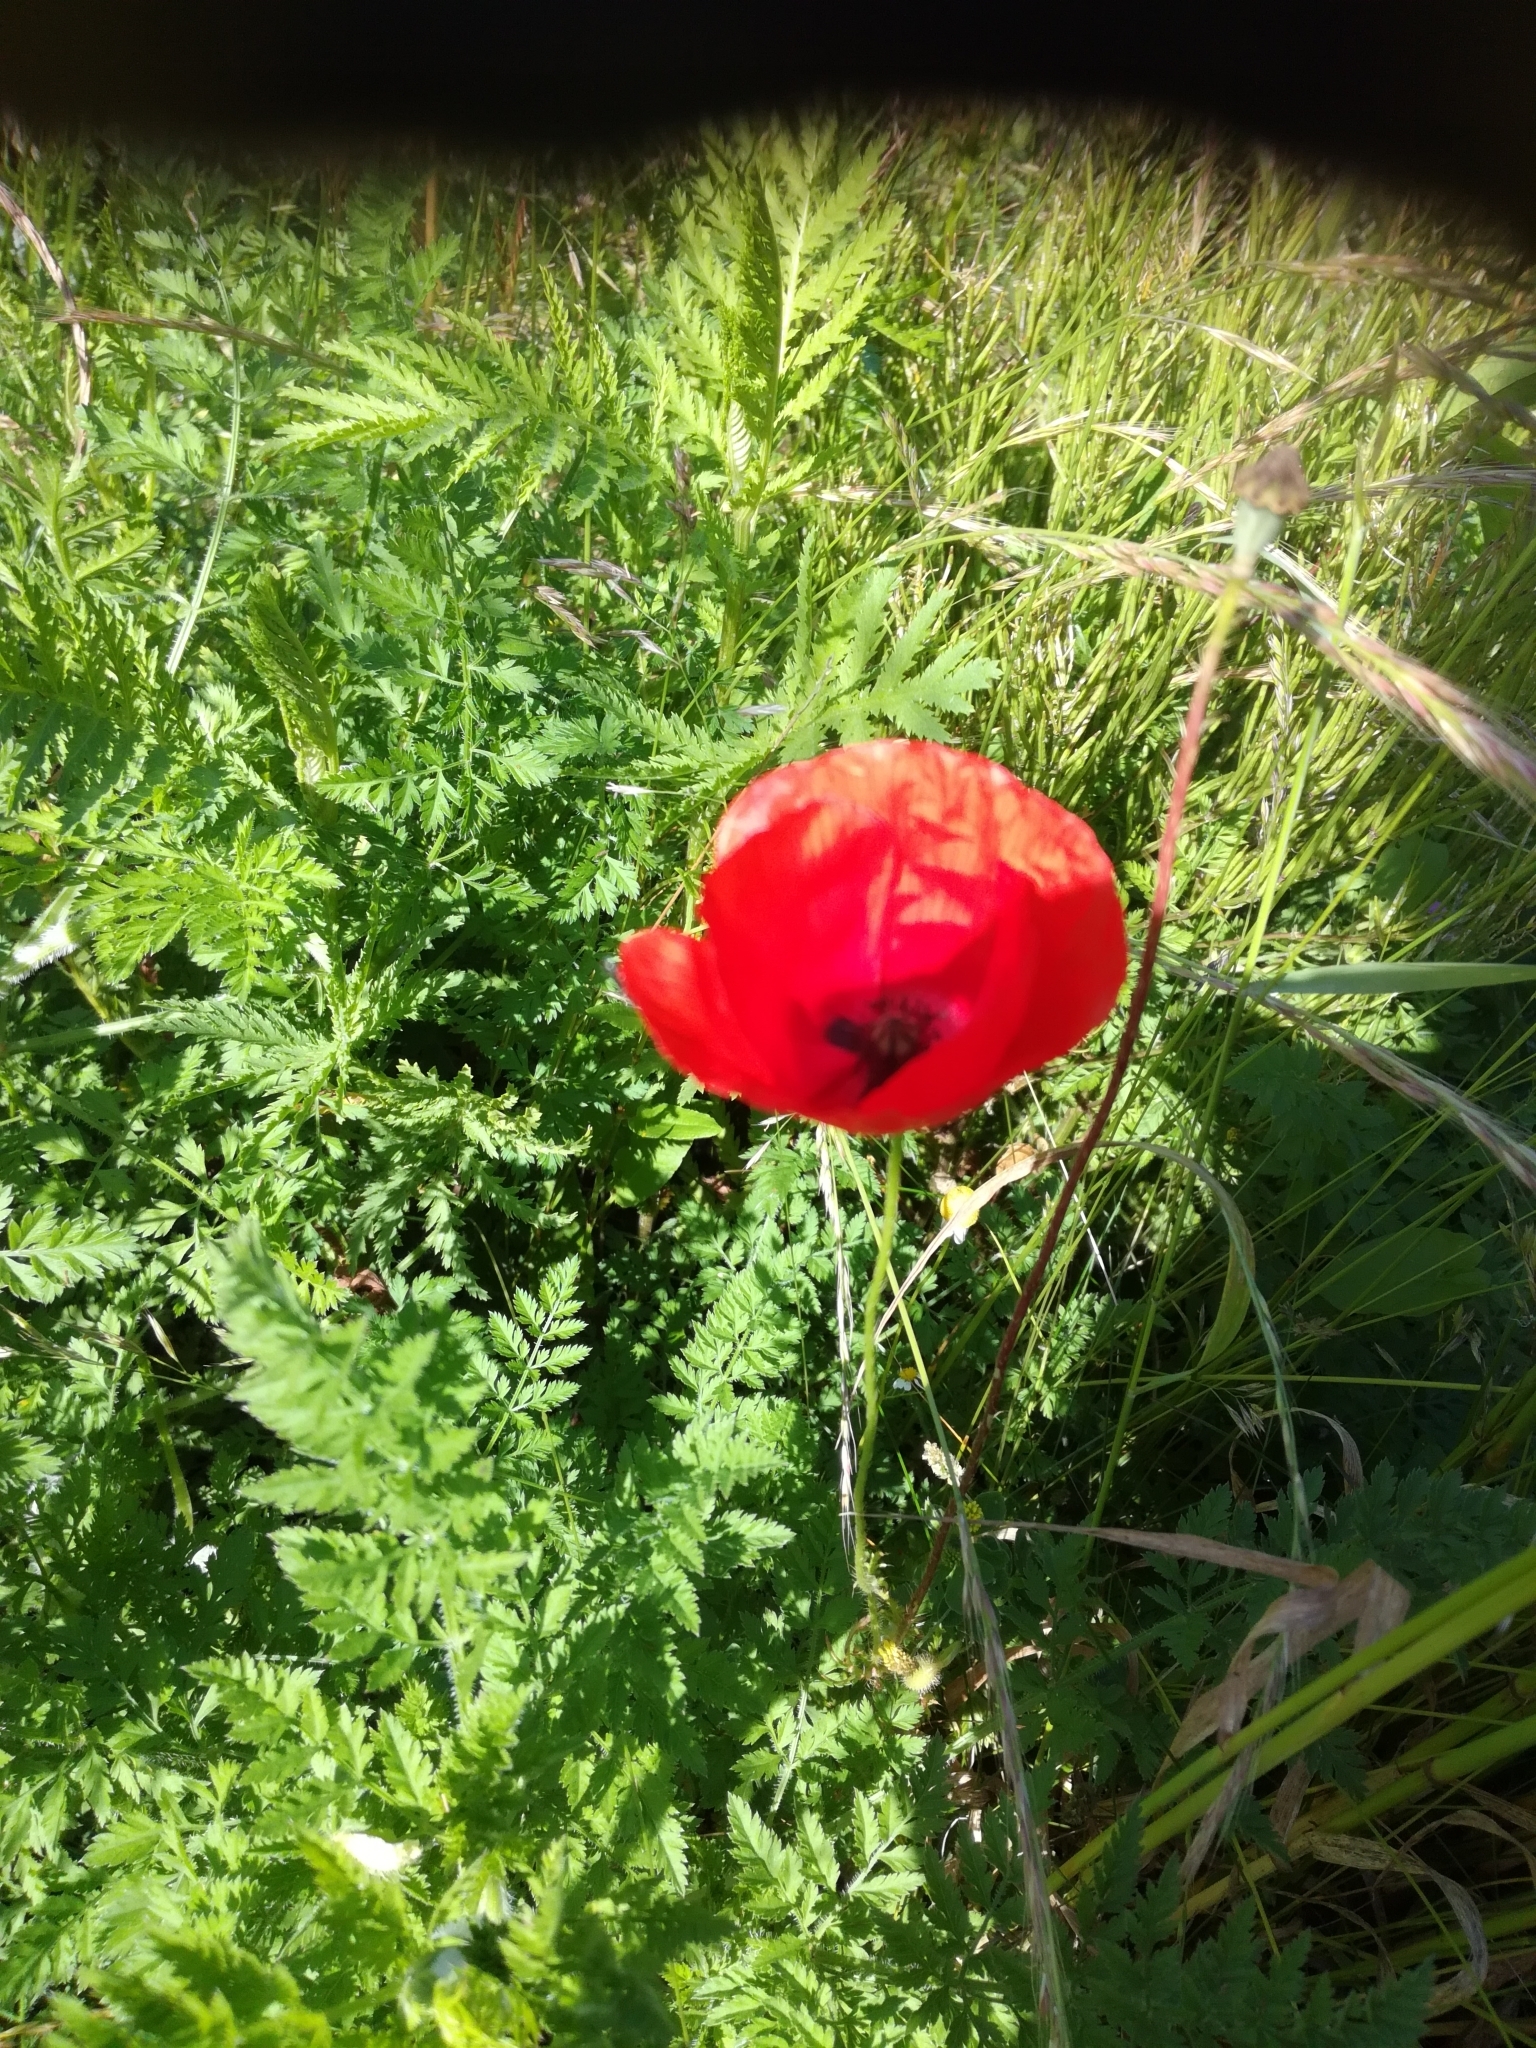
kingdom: Plantae
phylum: Tracheophyta
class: Magnoliopsida
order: Ranunculales
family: Papaveraceae
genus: Papaver
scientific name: Papaver rhoeas
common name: Corn poppy
